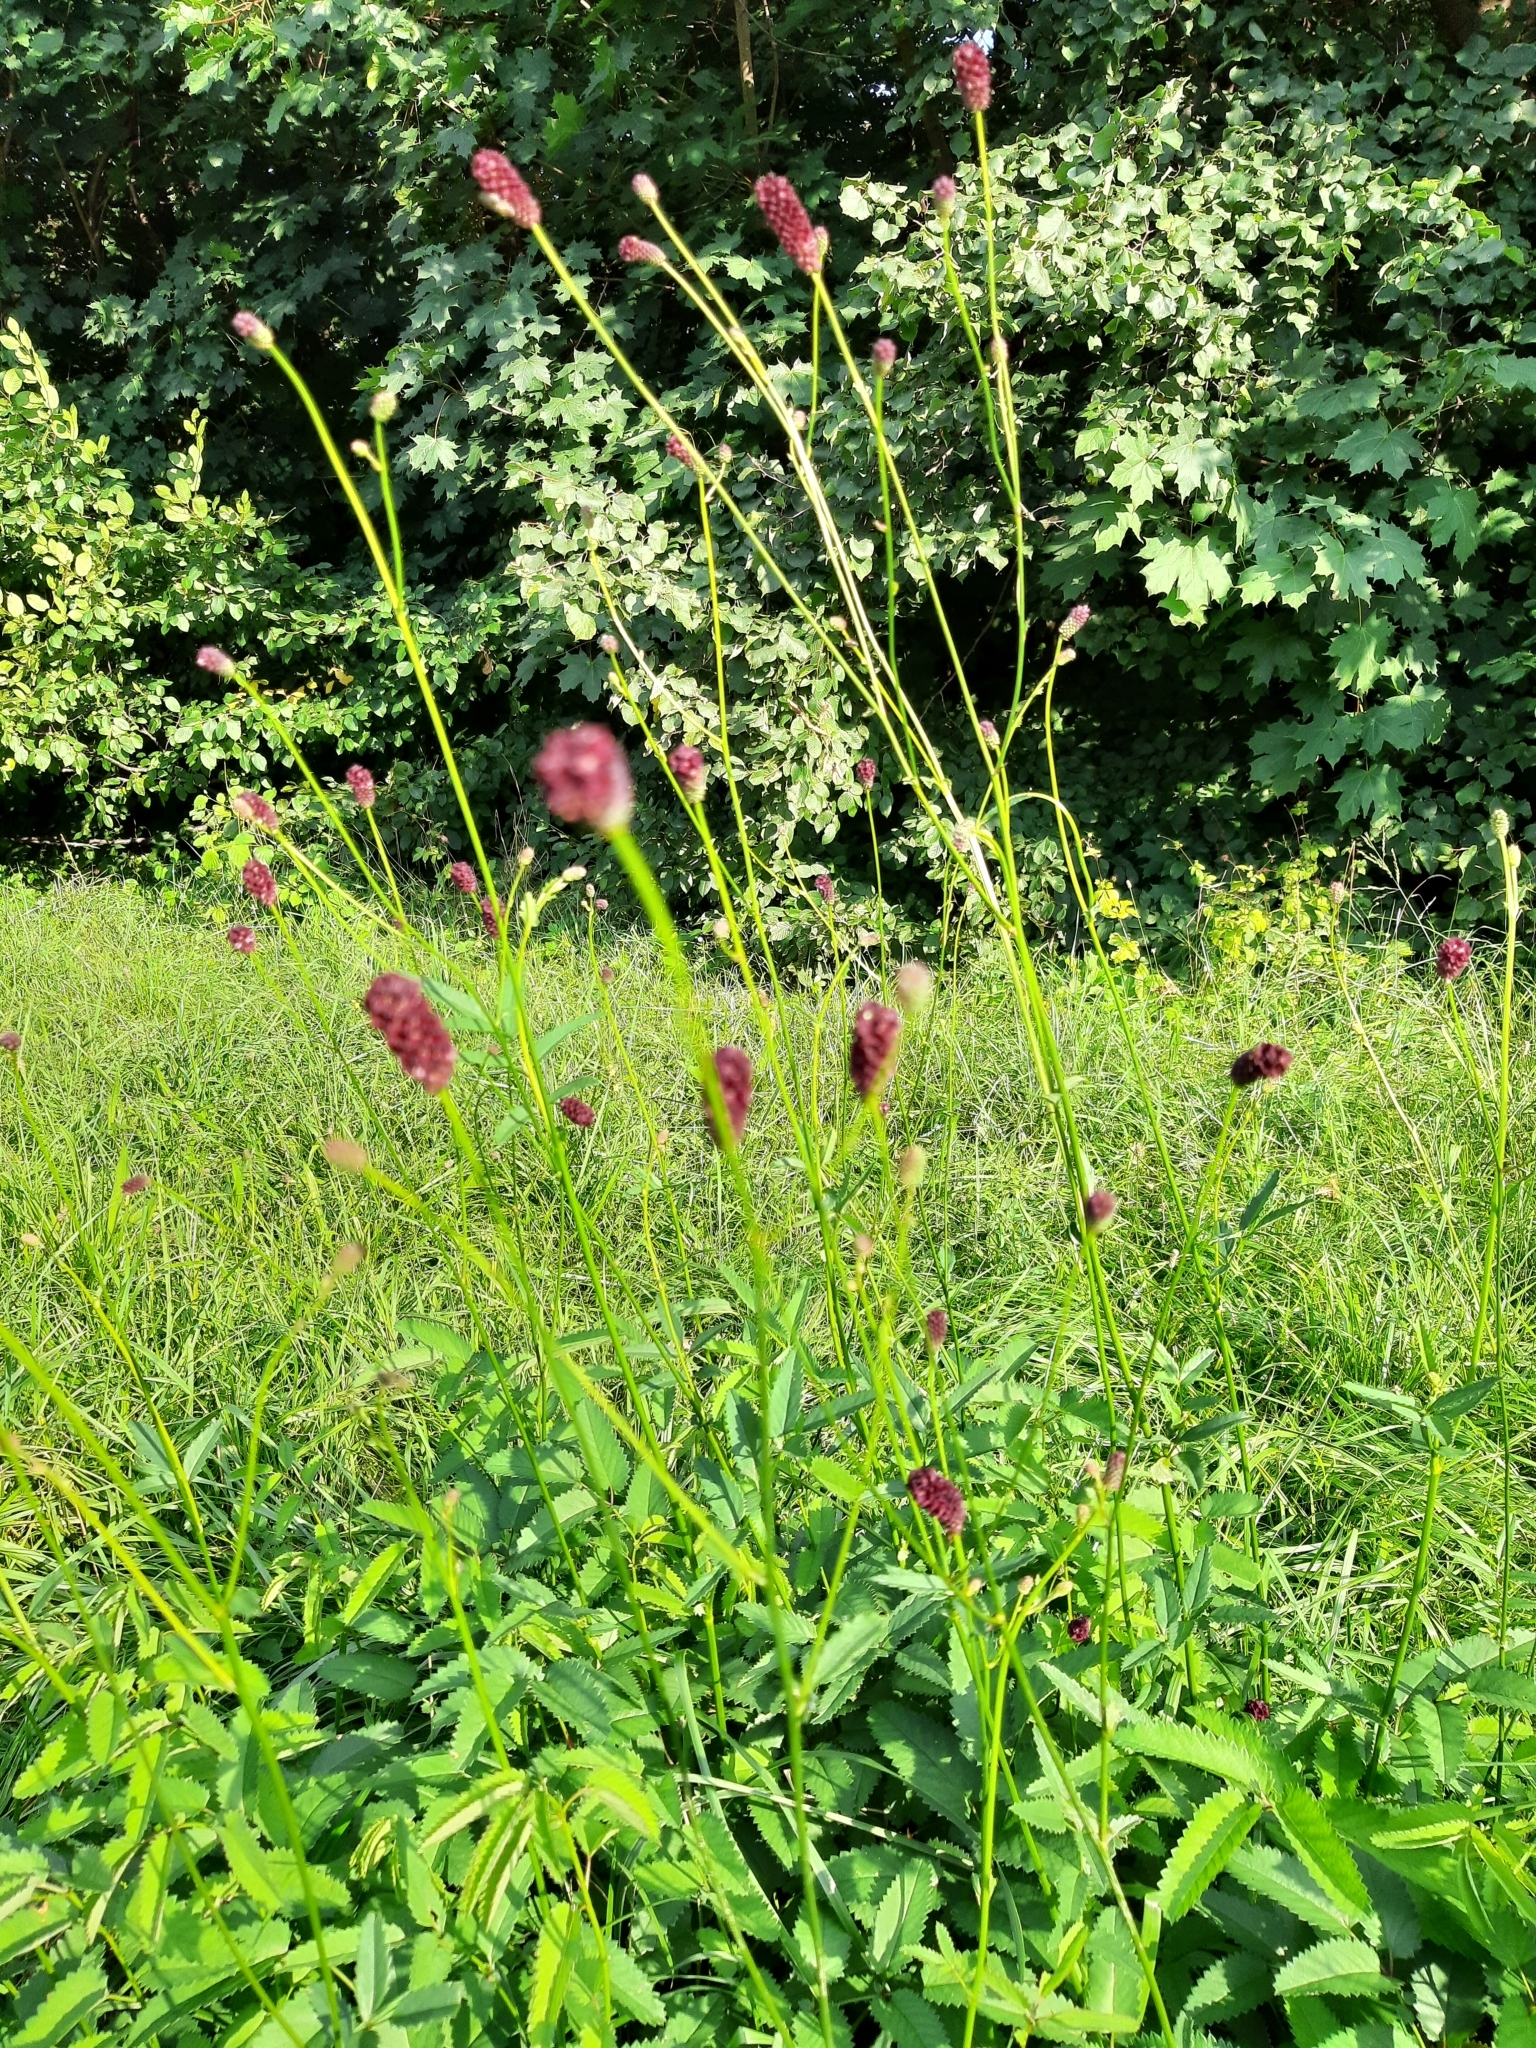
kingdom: Plantae
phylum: Tracheophyta
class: Magnoliopsida
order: Rosales
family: Rosaceae
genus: Sanguisorba
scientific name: Sanguisorba officinalis
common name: Great burnet
